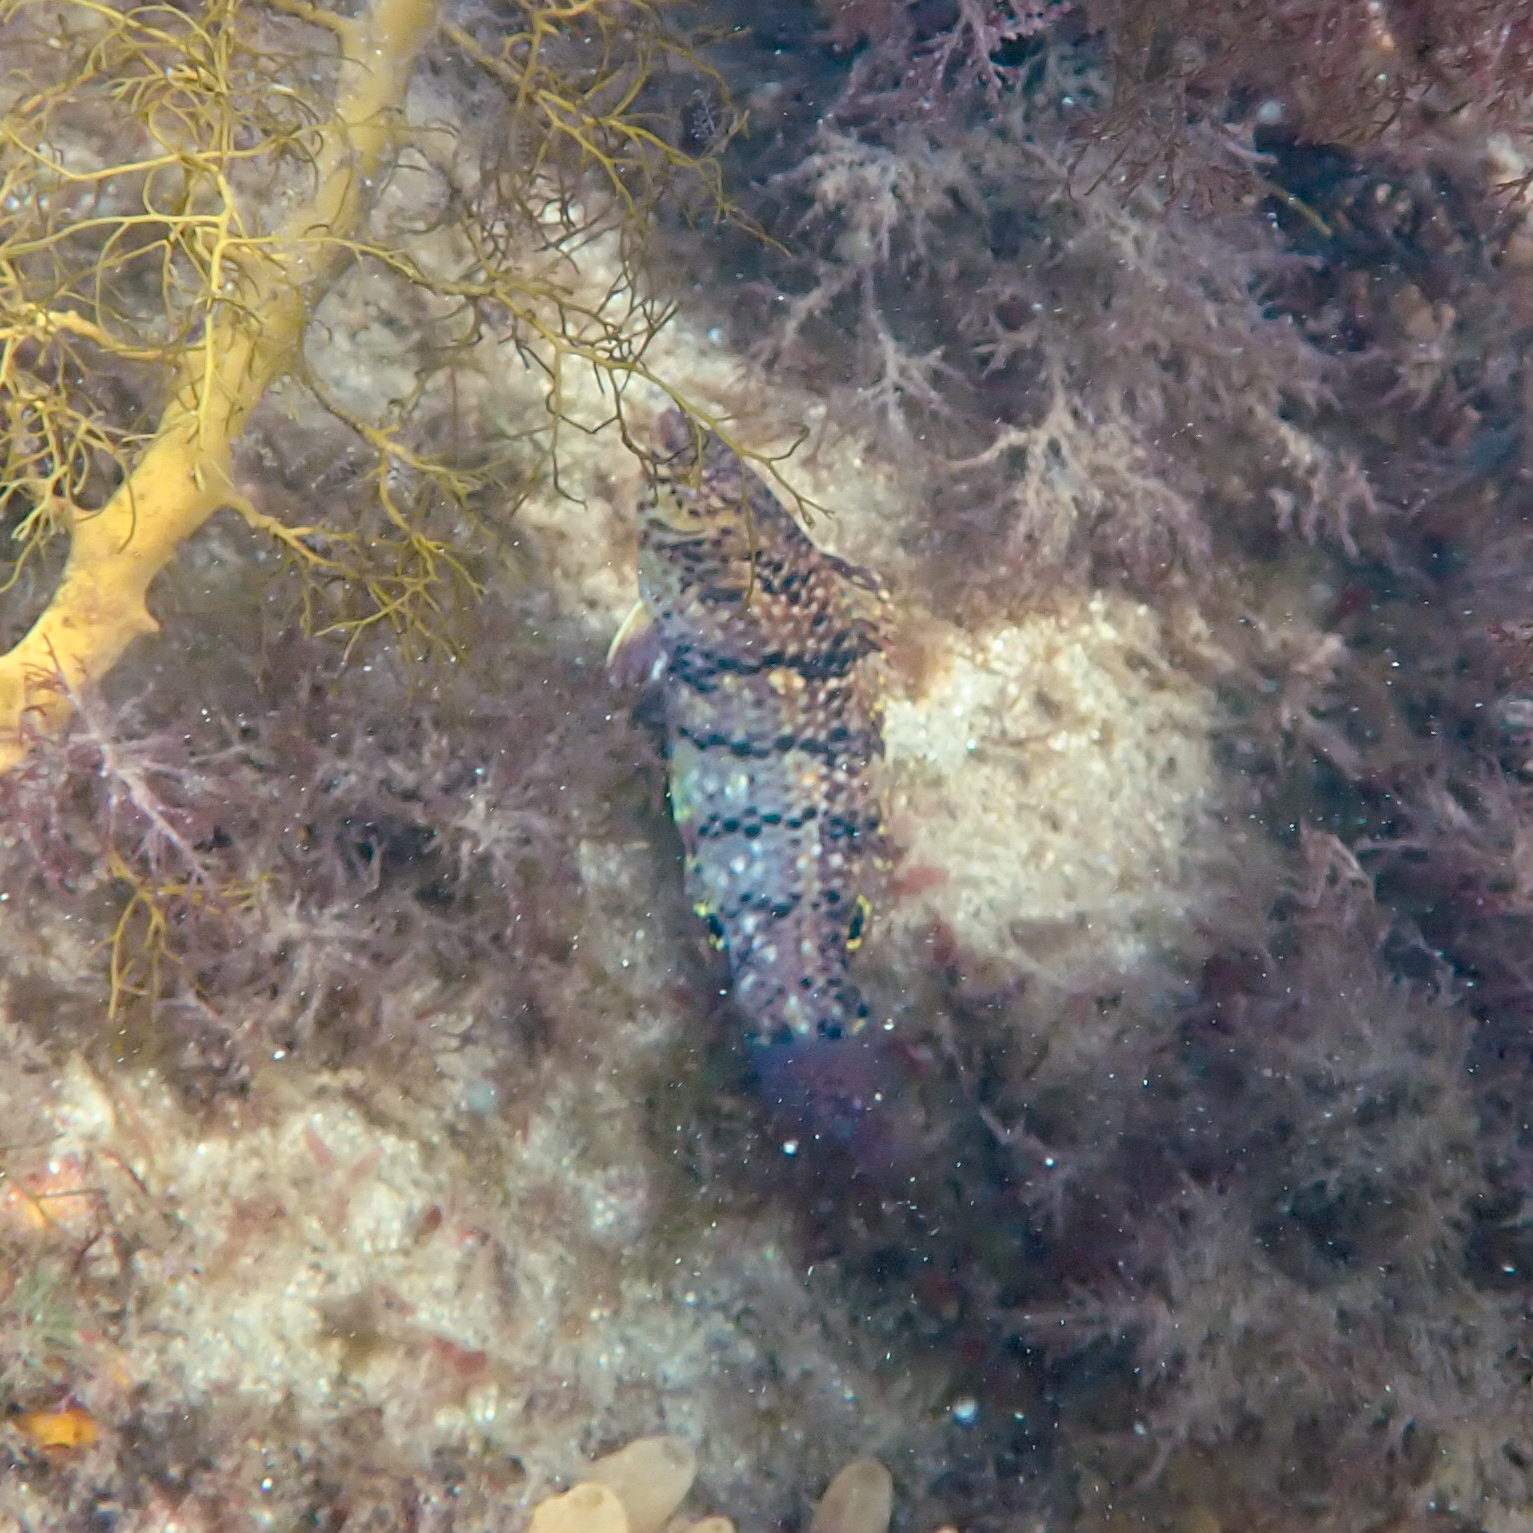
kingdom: Animalia
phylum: Chordata
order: Perciformes
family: Labridae
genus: Dotalabrus
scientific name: Dotalabrus aurantiacus
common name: Pretty polly
